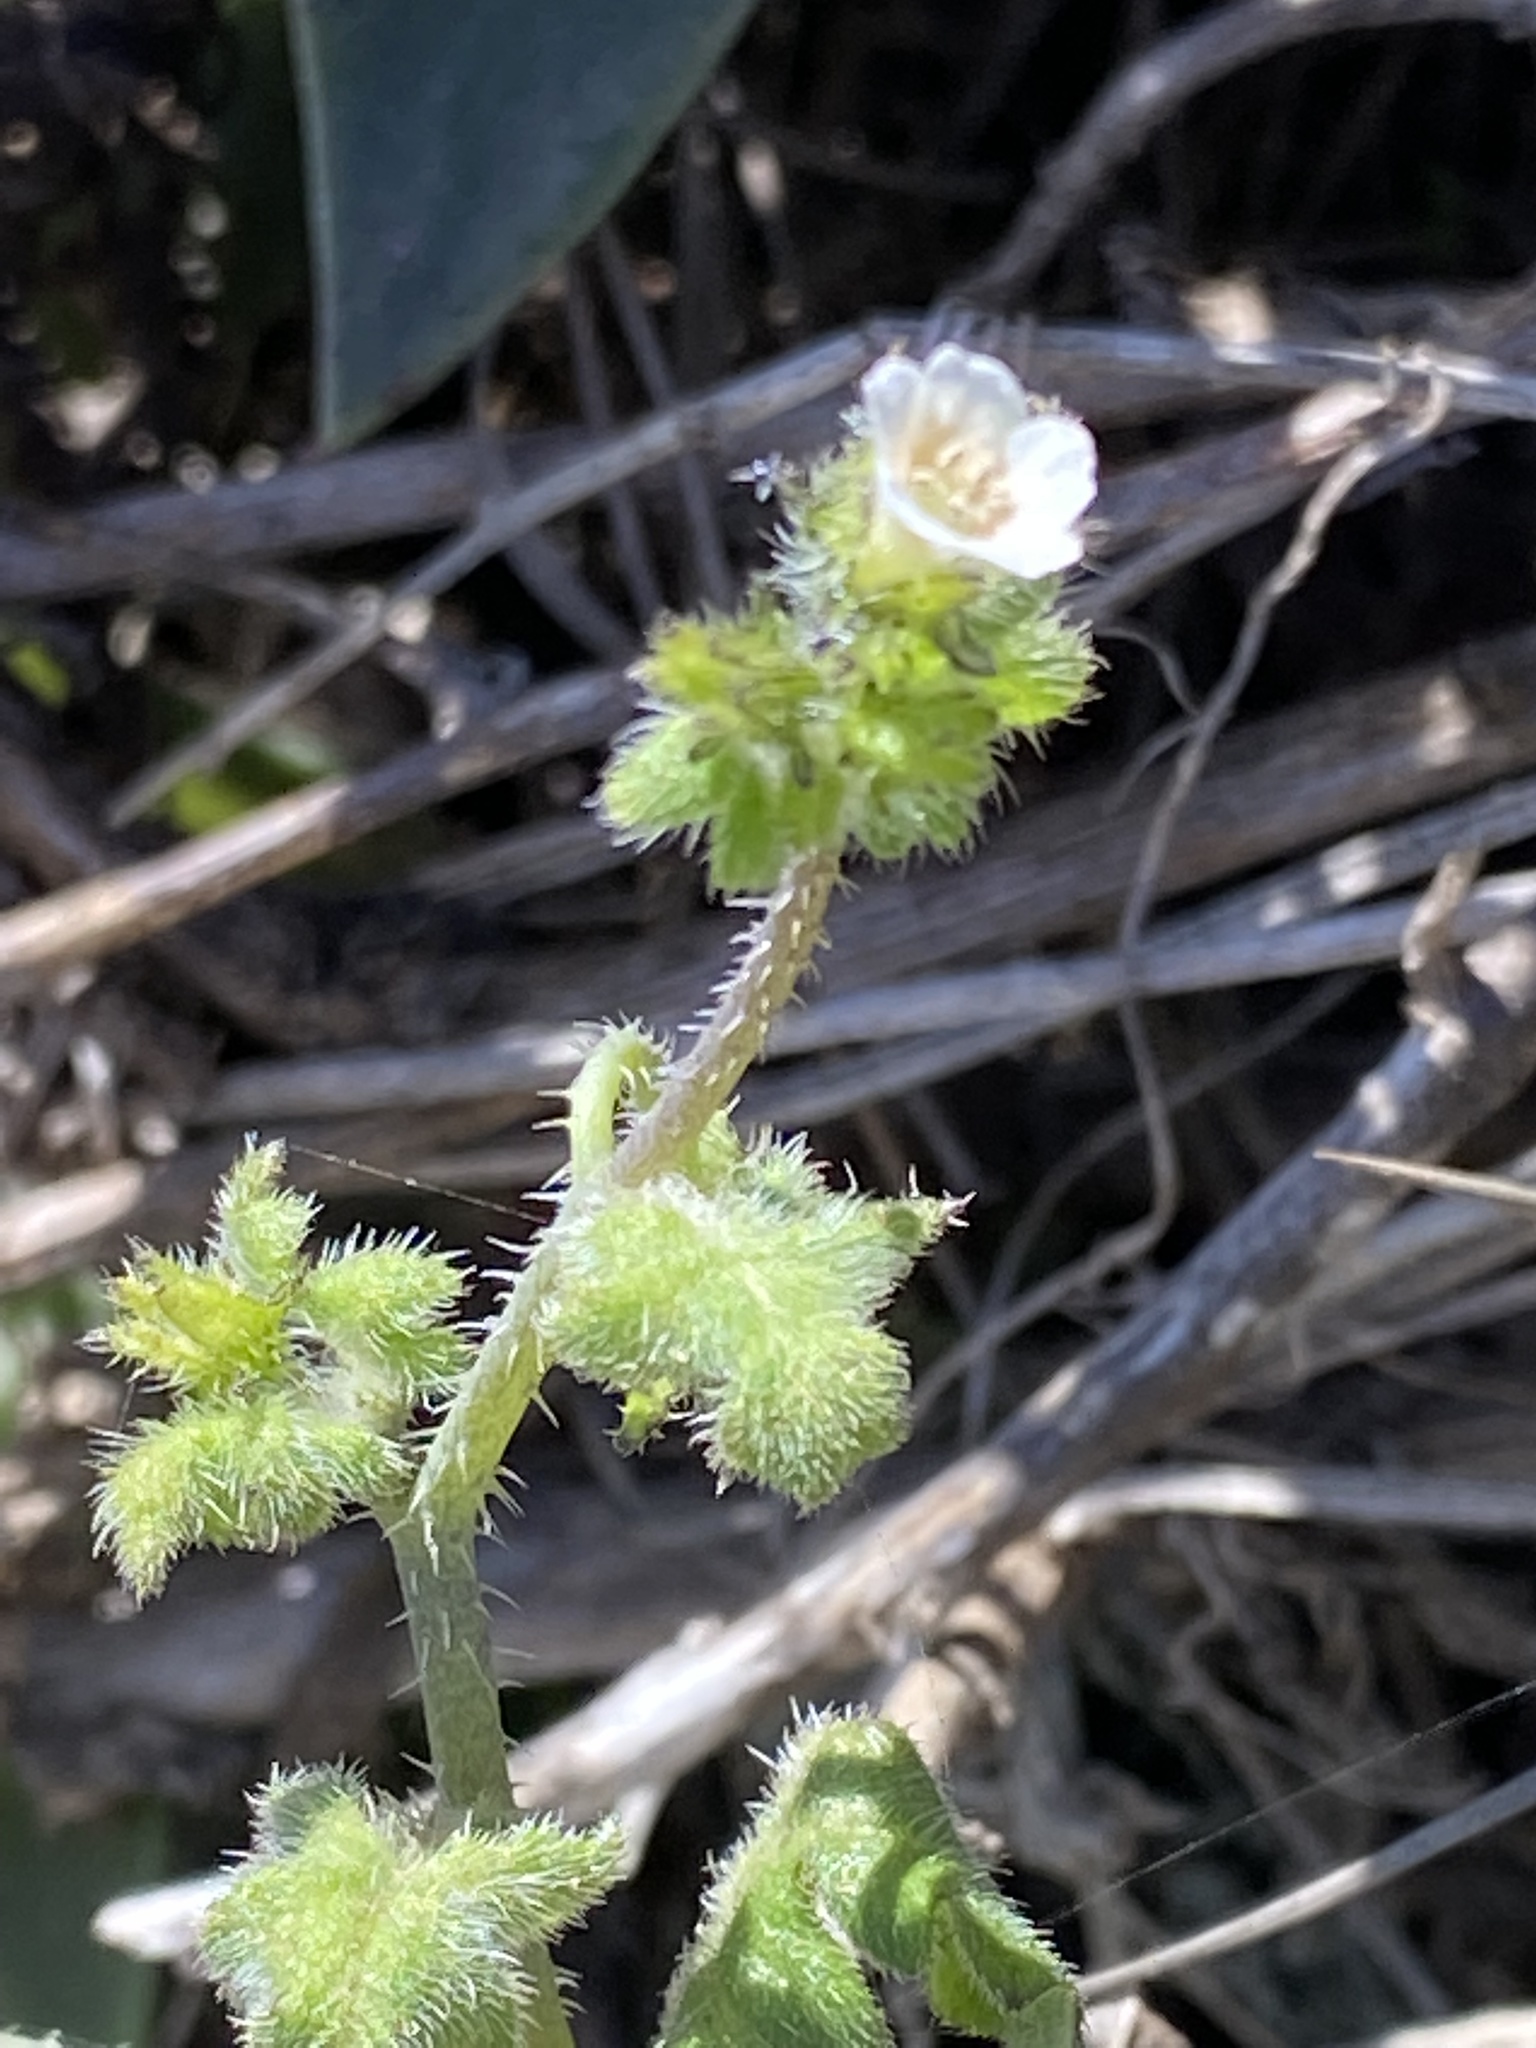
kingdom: Plantae
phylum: Tracheophyta
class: Magnoliopsida
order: Boraginales
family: Hydrophyllaceae
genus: Pholistoma
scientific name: Pholistoma racemosum
